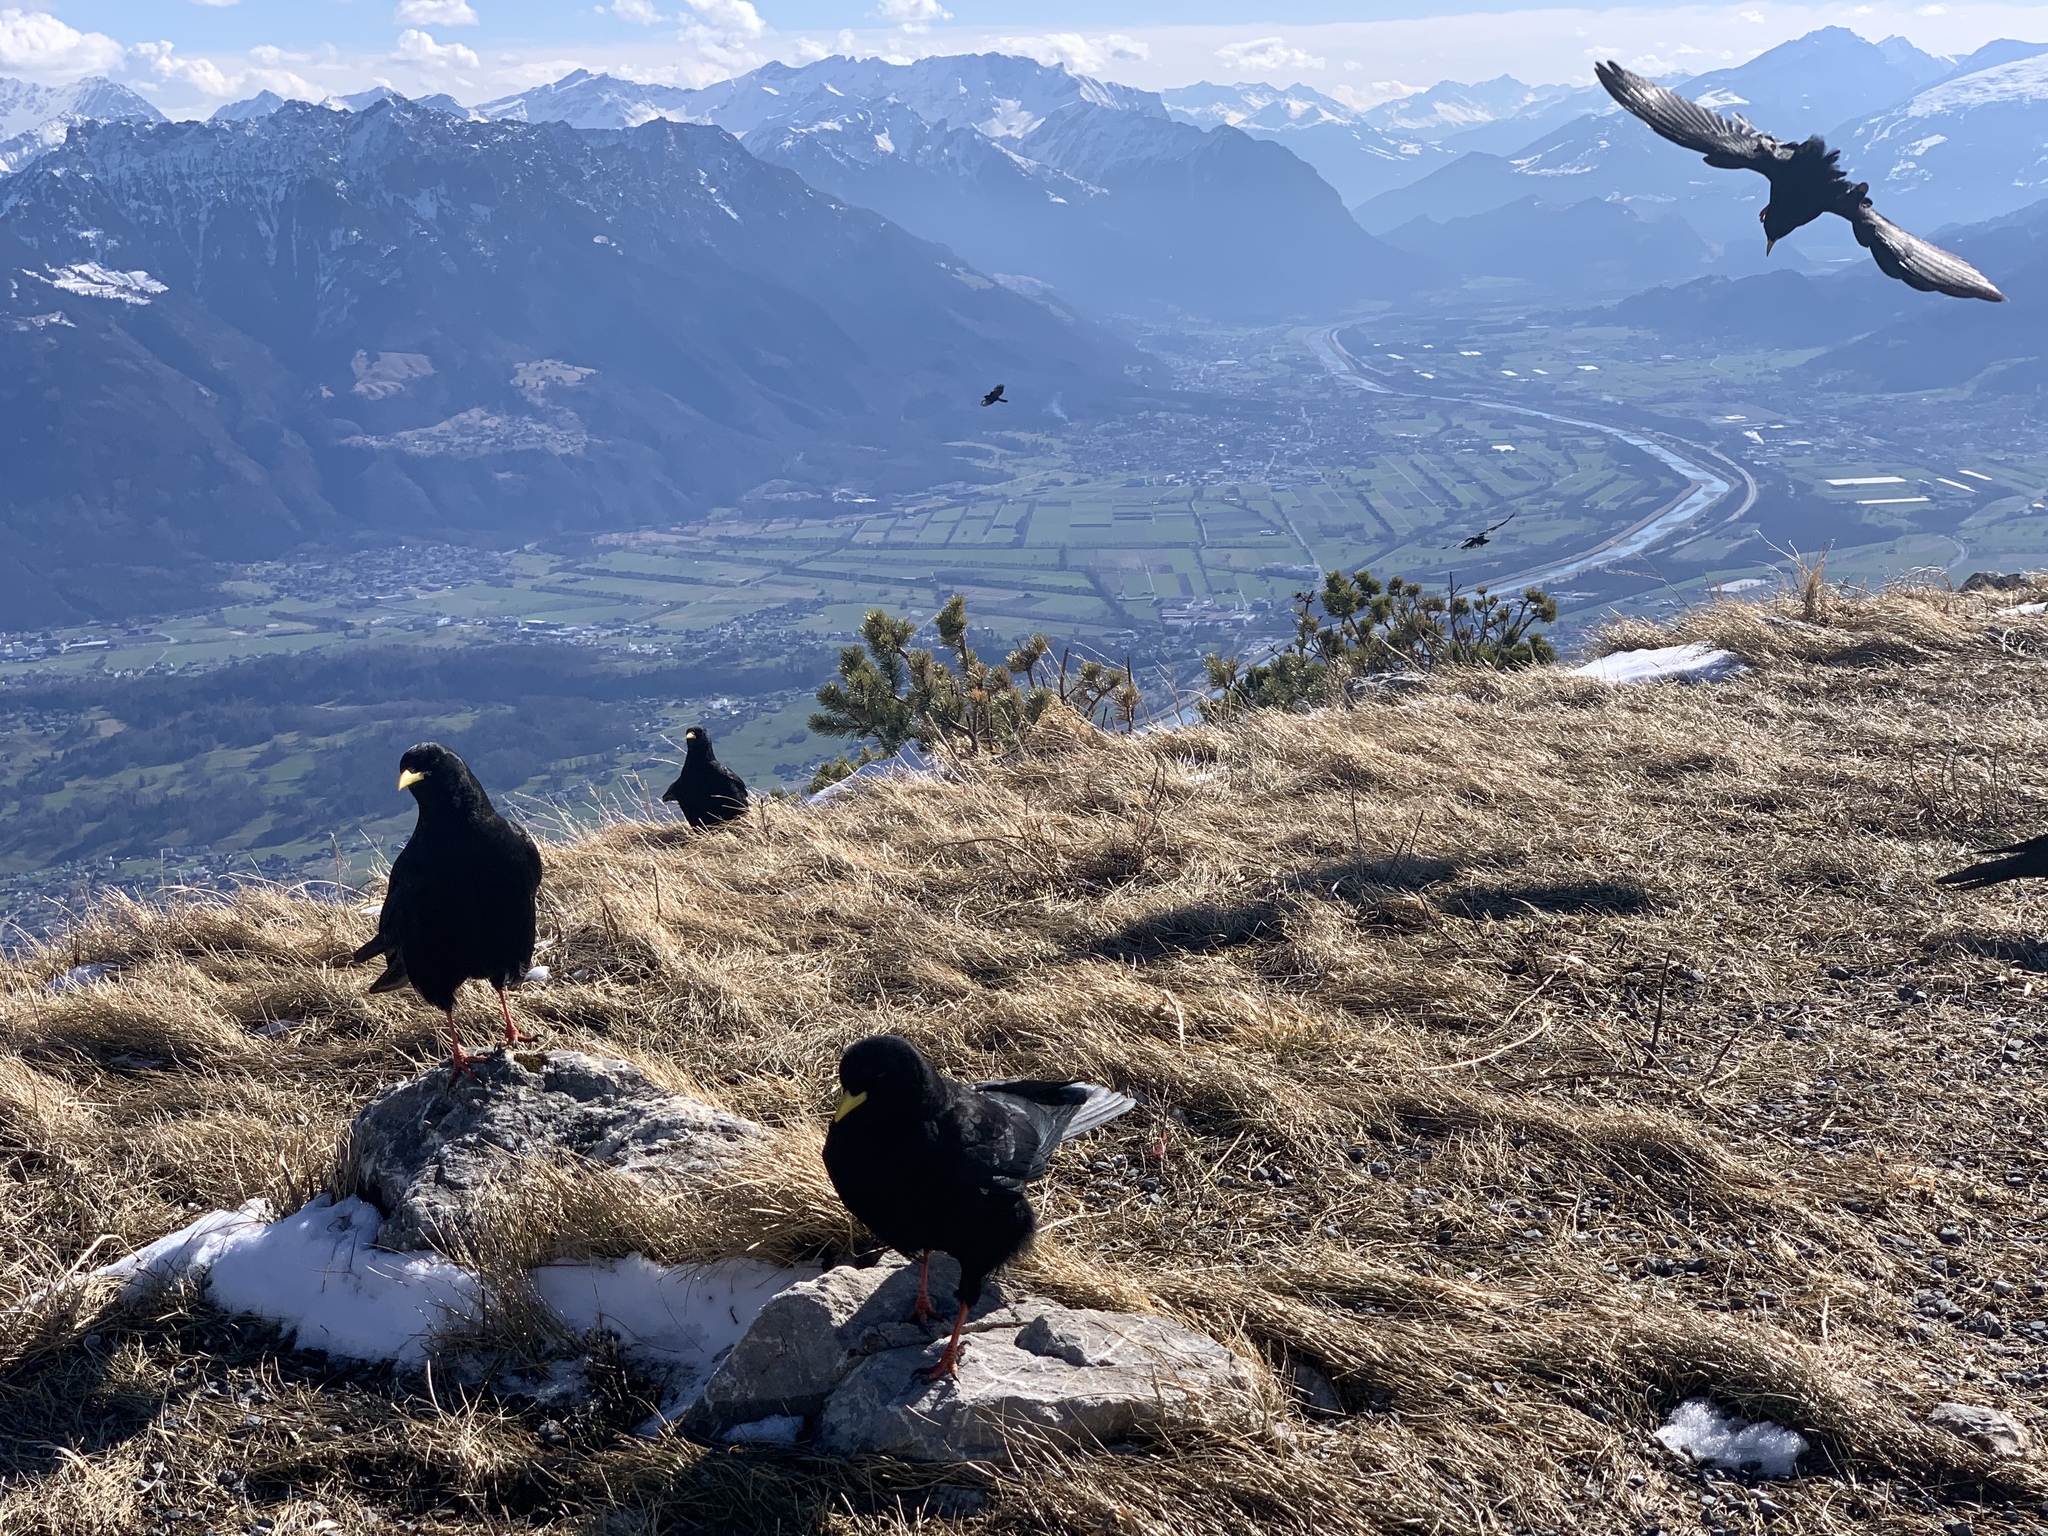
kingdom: Animalia
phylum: Chordata
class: Aves
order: Passeriformes
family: Corvidae
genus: Pyrrhocorax
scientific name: Pyrrhocorax graculus
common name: Alpine chough
